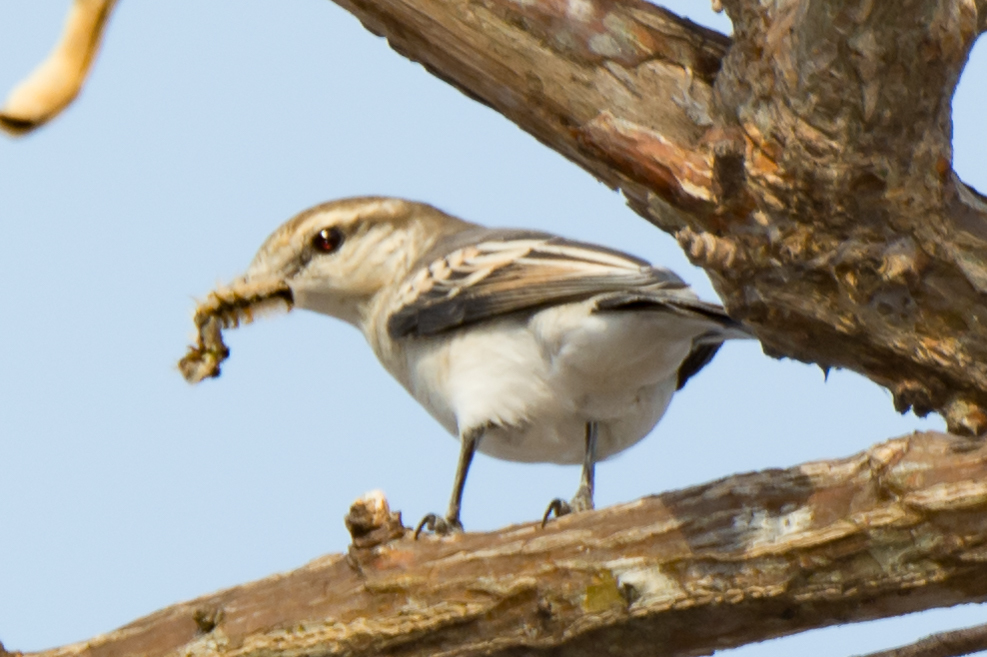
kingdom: Animalia
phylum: Chordata
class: Aves
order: Passeriformes
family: Campephagidae
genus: Lalage
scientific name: Lalage sueurii
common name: White-shouldered triller
